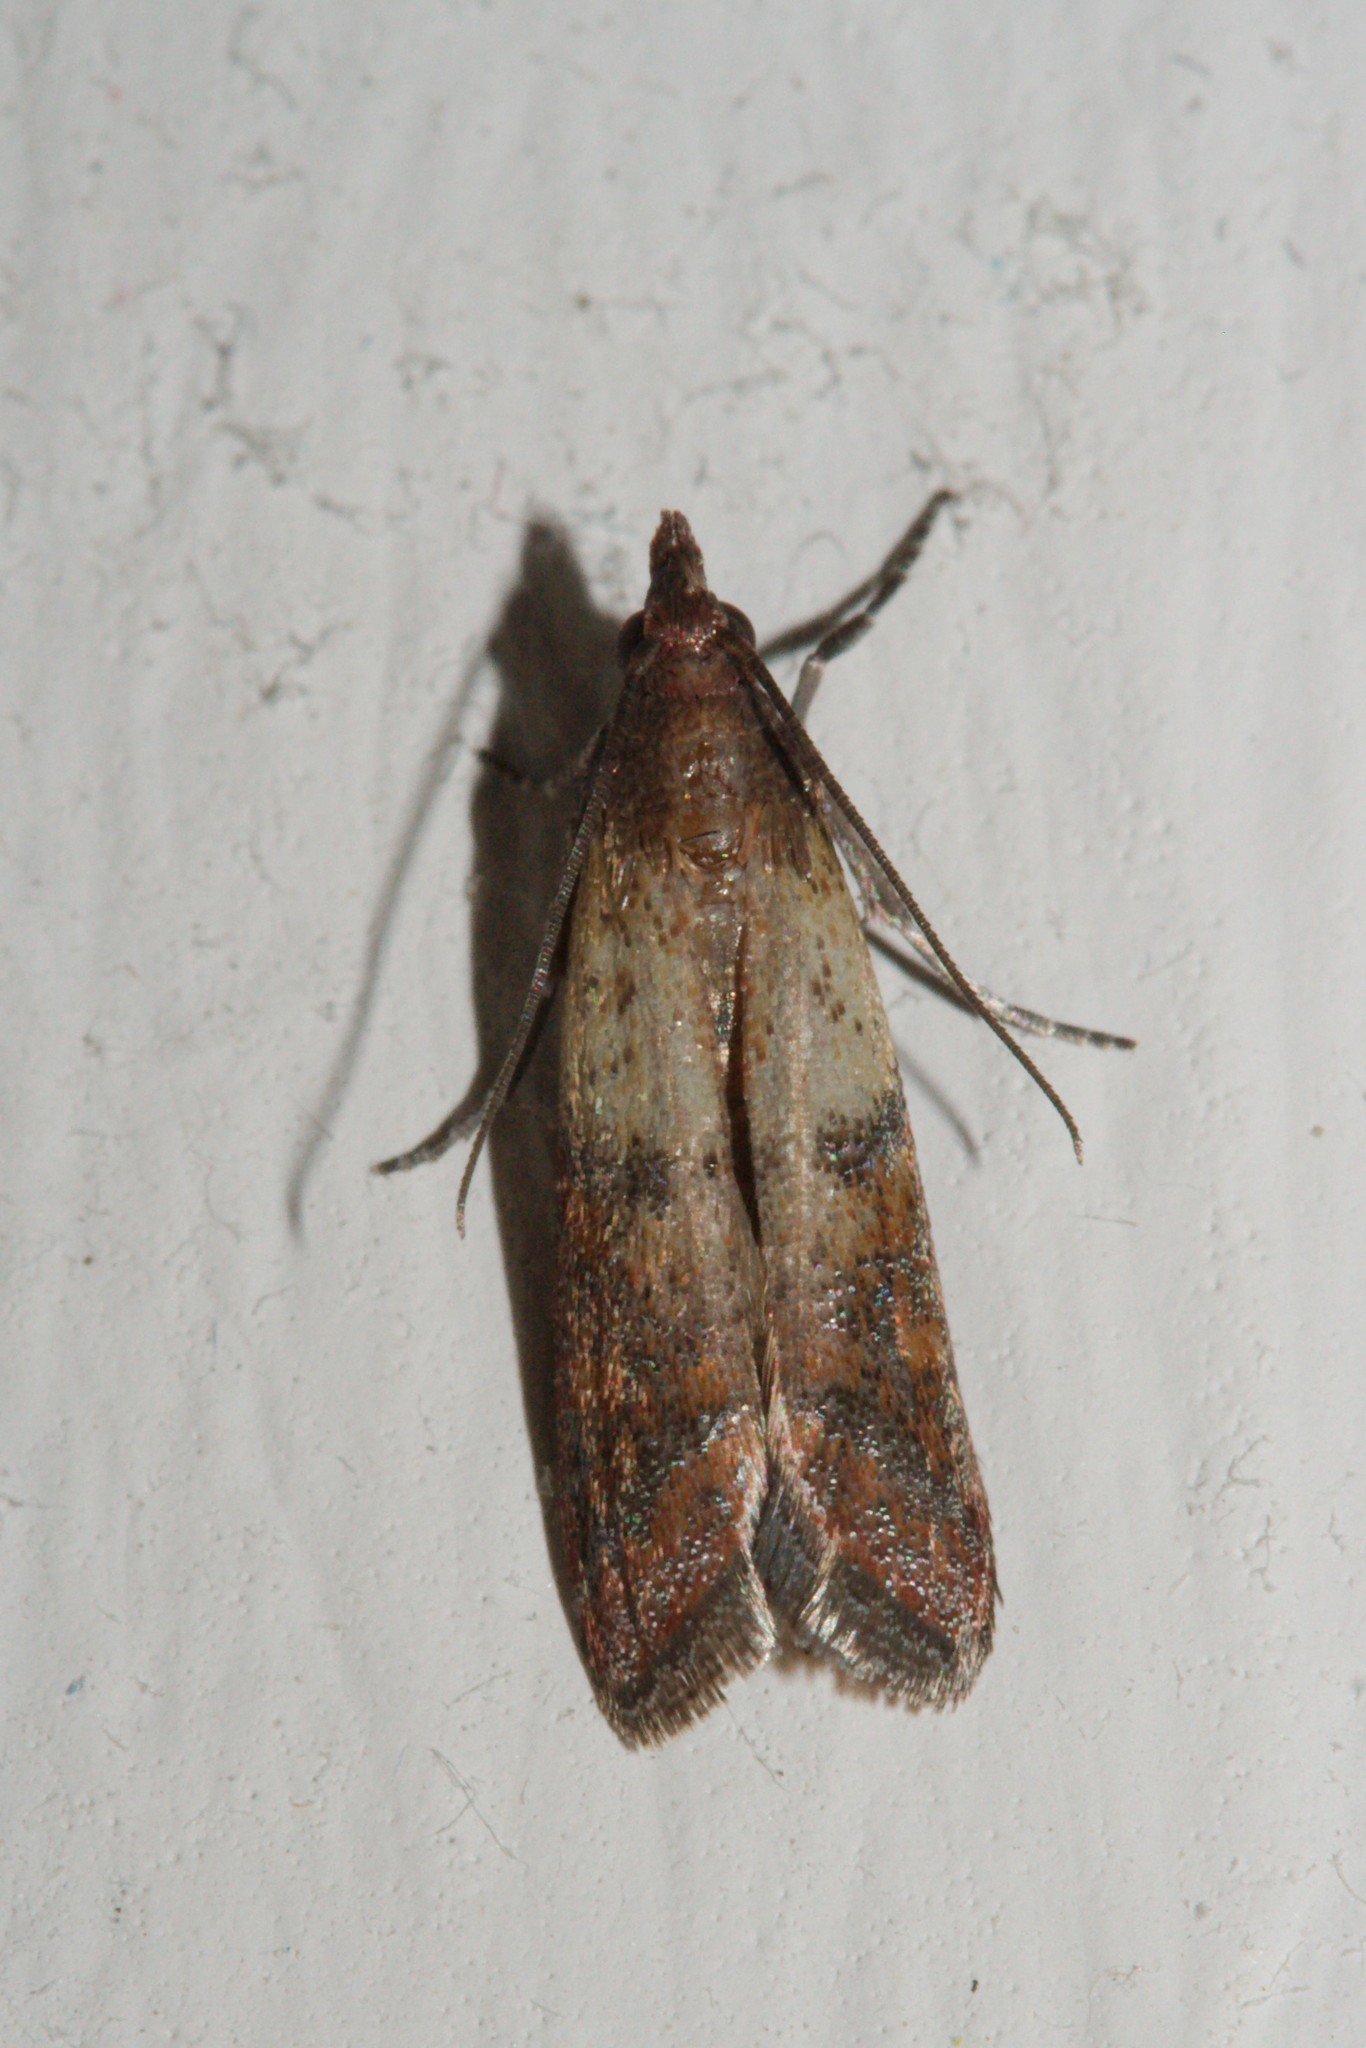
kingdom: Animalia
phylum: Arthropoda
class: Insecta
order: Lepidoptera
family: Pyralidae
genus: Plodia
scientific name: Plodia interpunctella
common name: Indian meal moth
